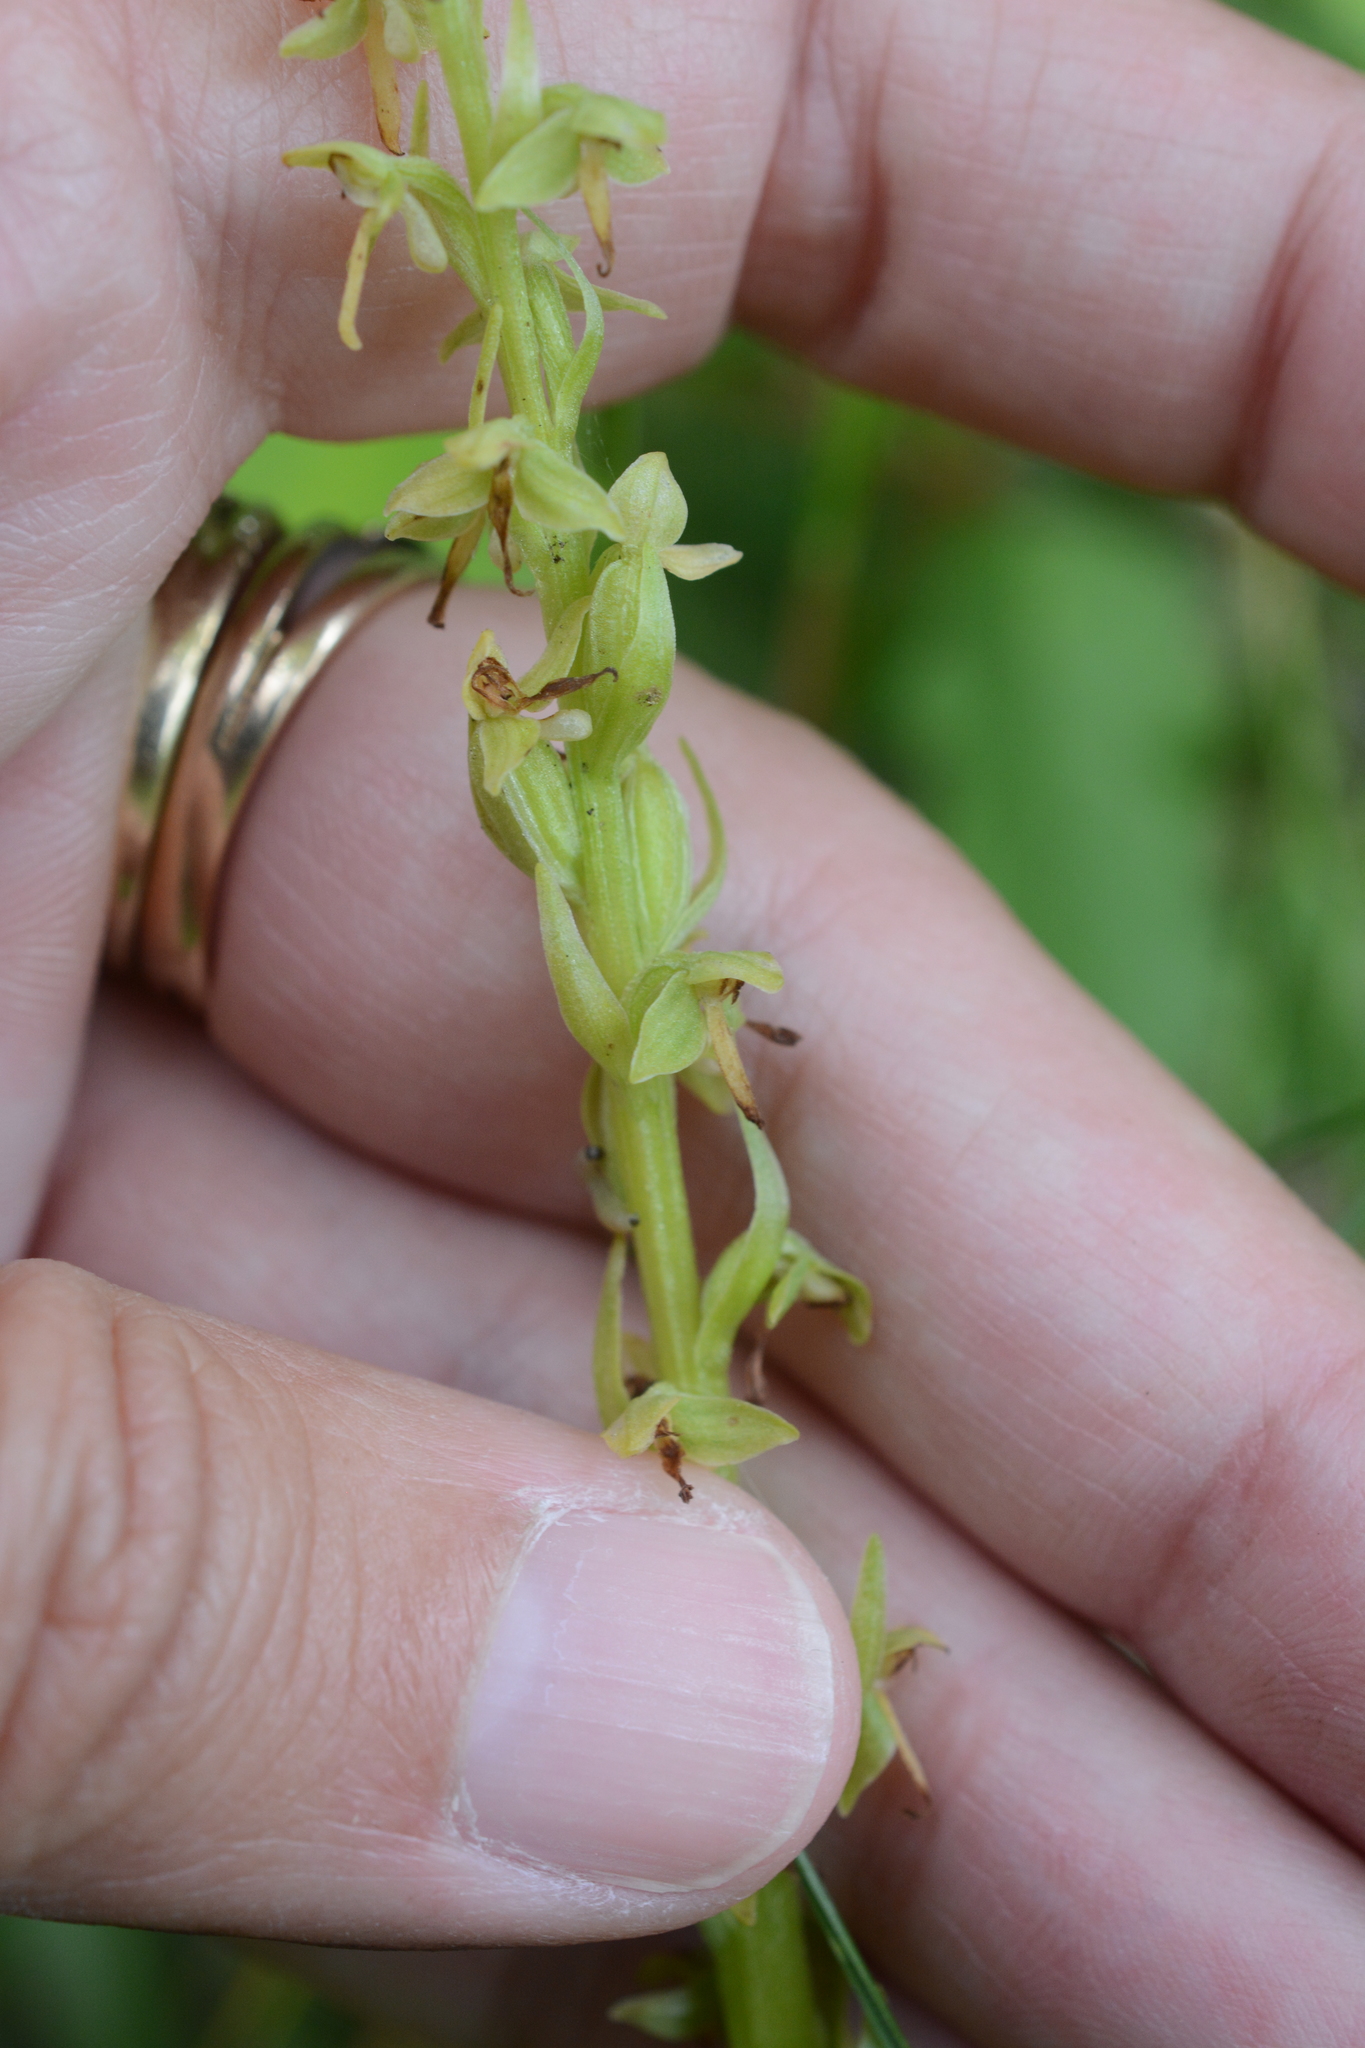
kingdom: Plantae
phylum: Tracheophyta
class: Liliopsida
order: Asparagales
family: Orchidaceae
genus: Platanthera
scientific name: Platanthera stricta
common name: Slender bog orchid
